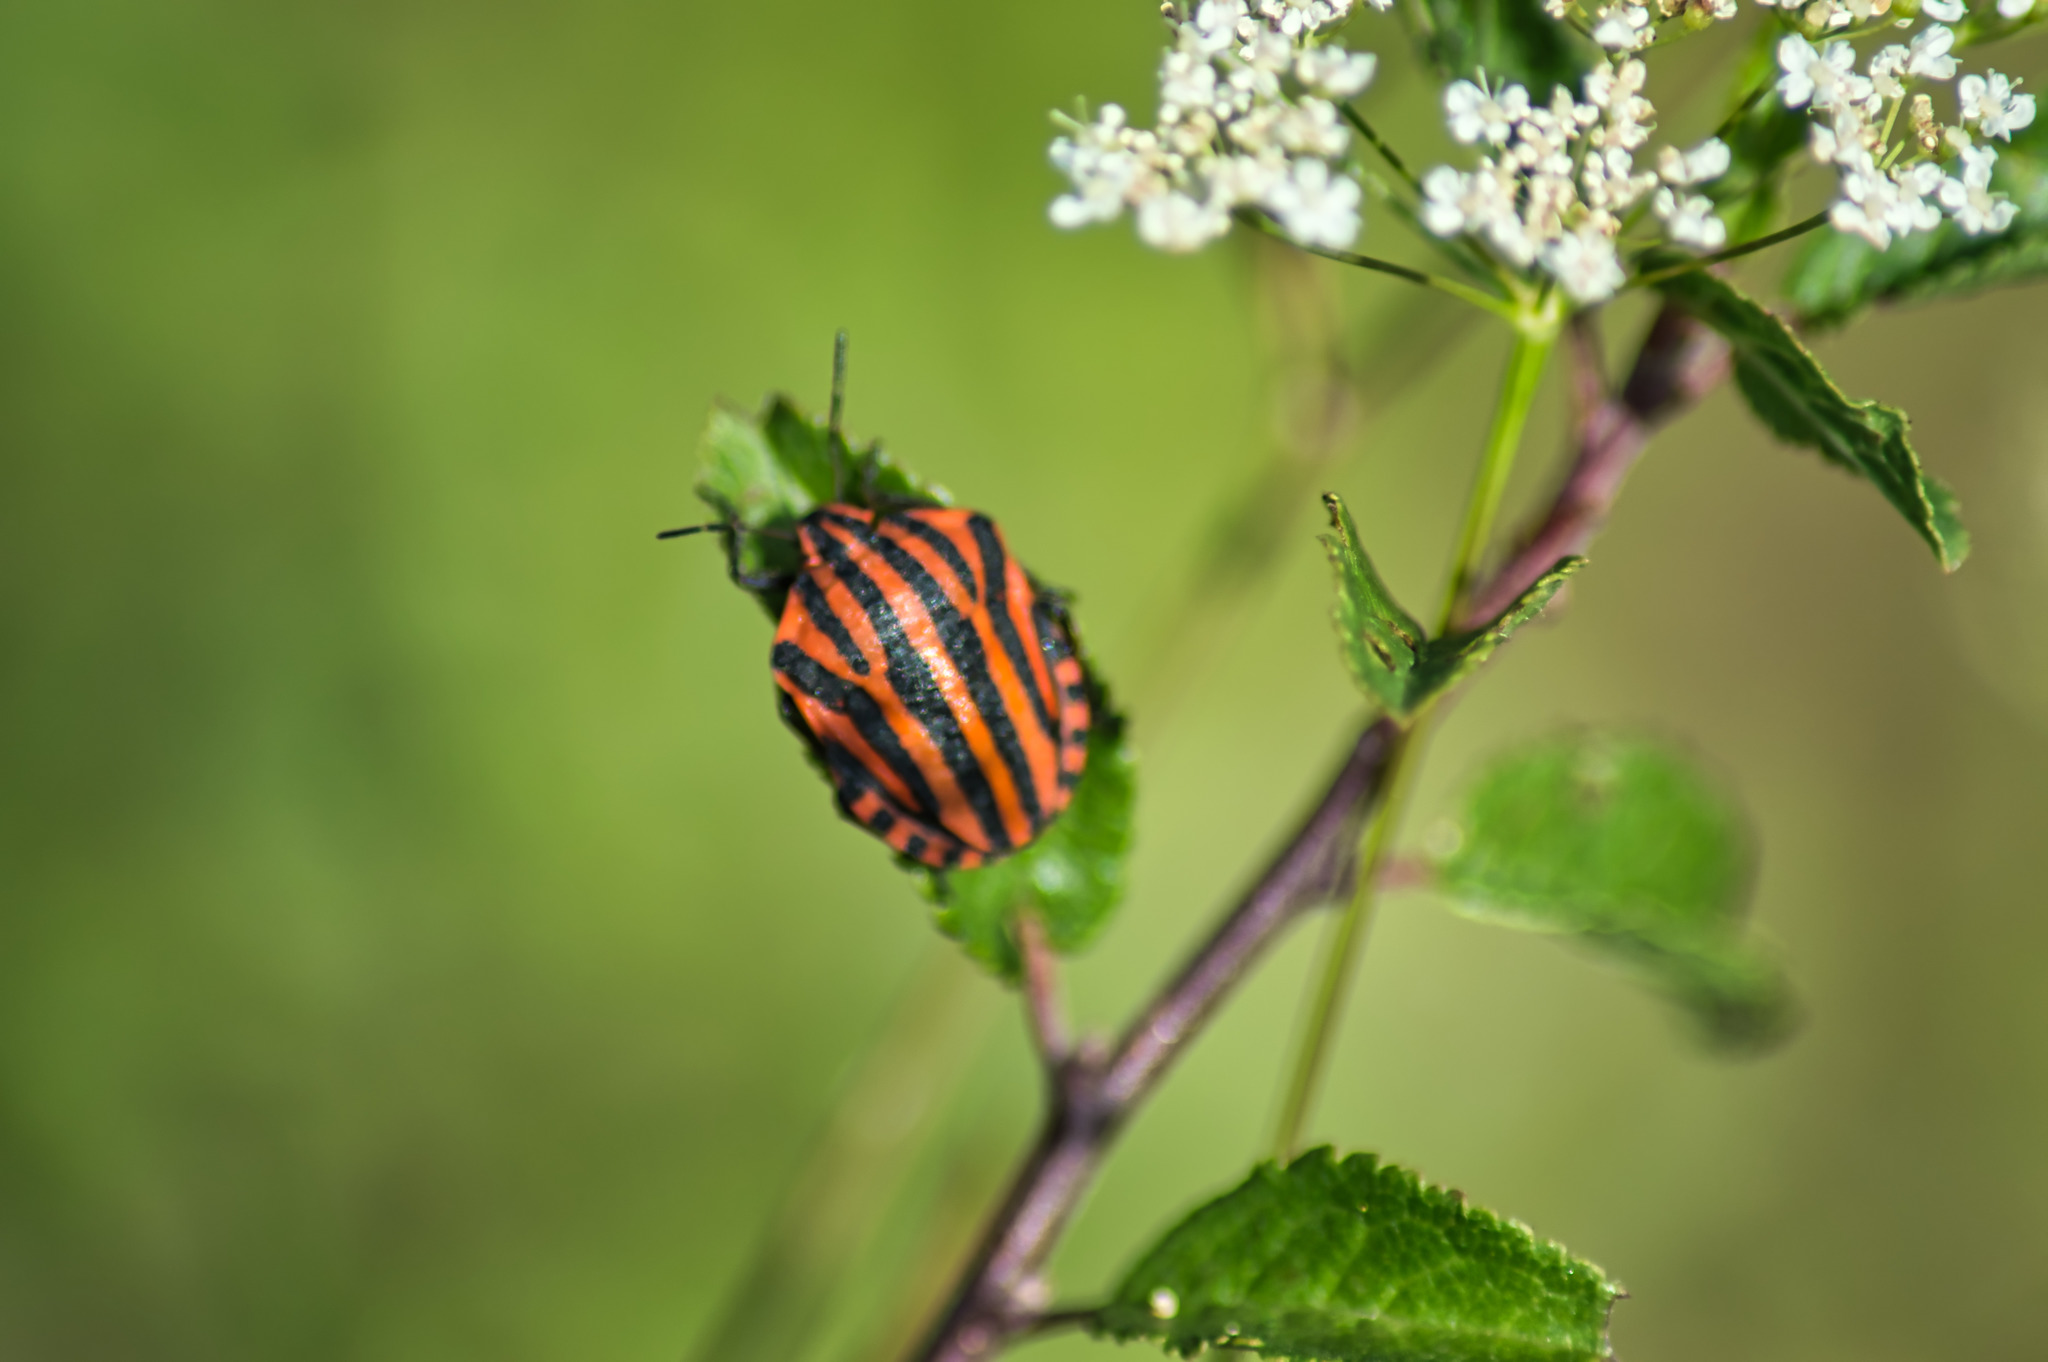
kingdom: Animalia
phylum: Arthropoda
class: Insecta
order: Hemiptera
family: Pentatomidae
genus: Graphosoma
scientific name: Graphosoma italicum
